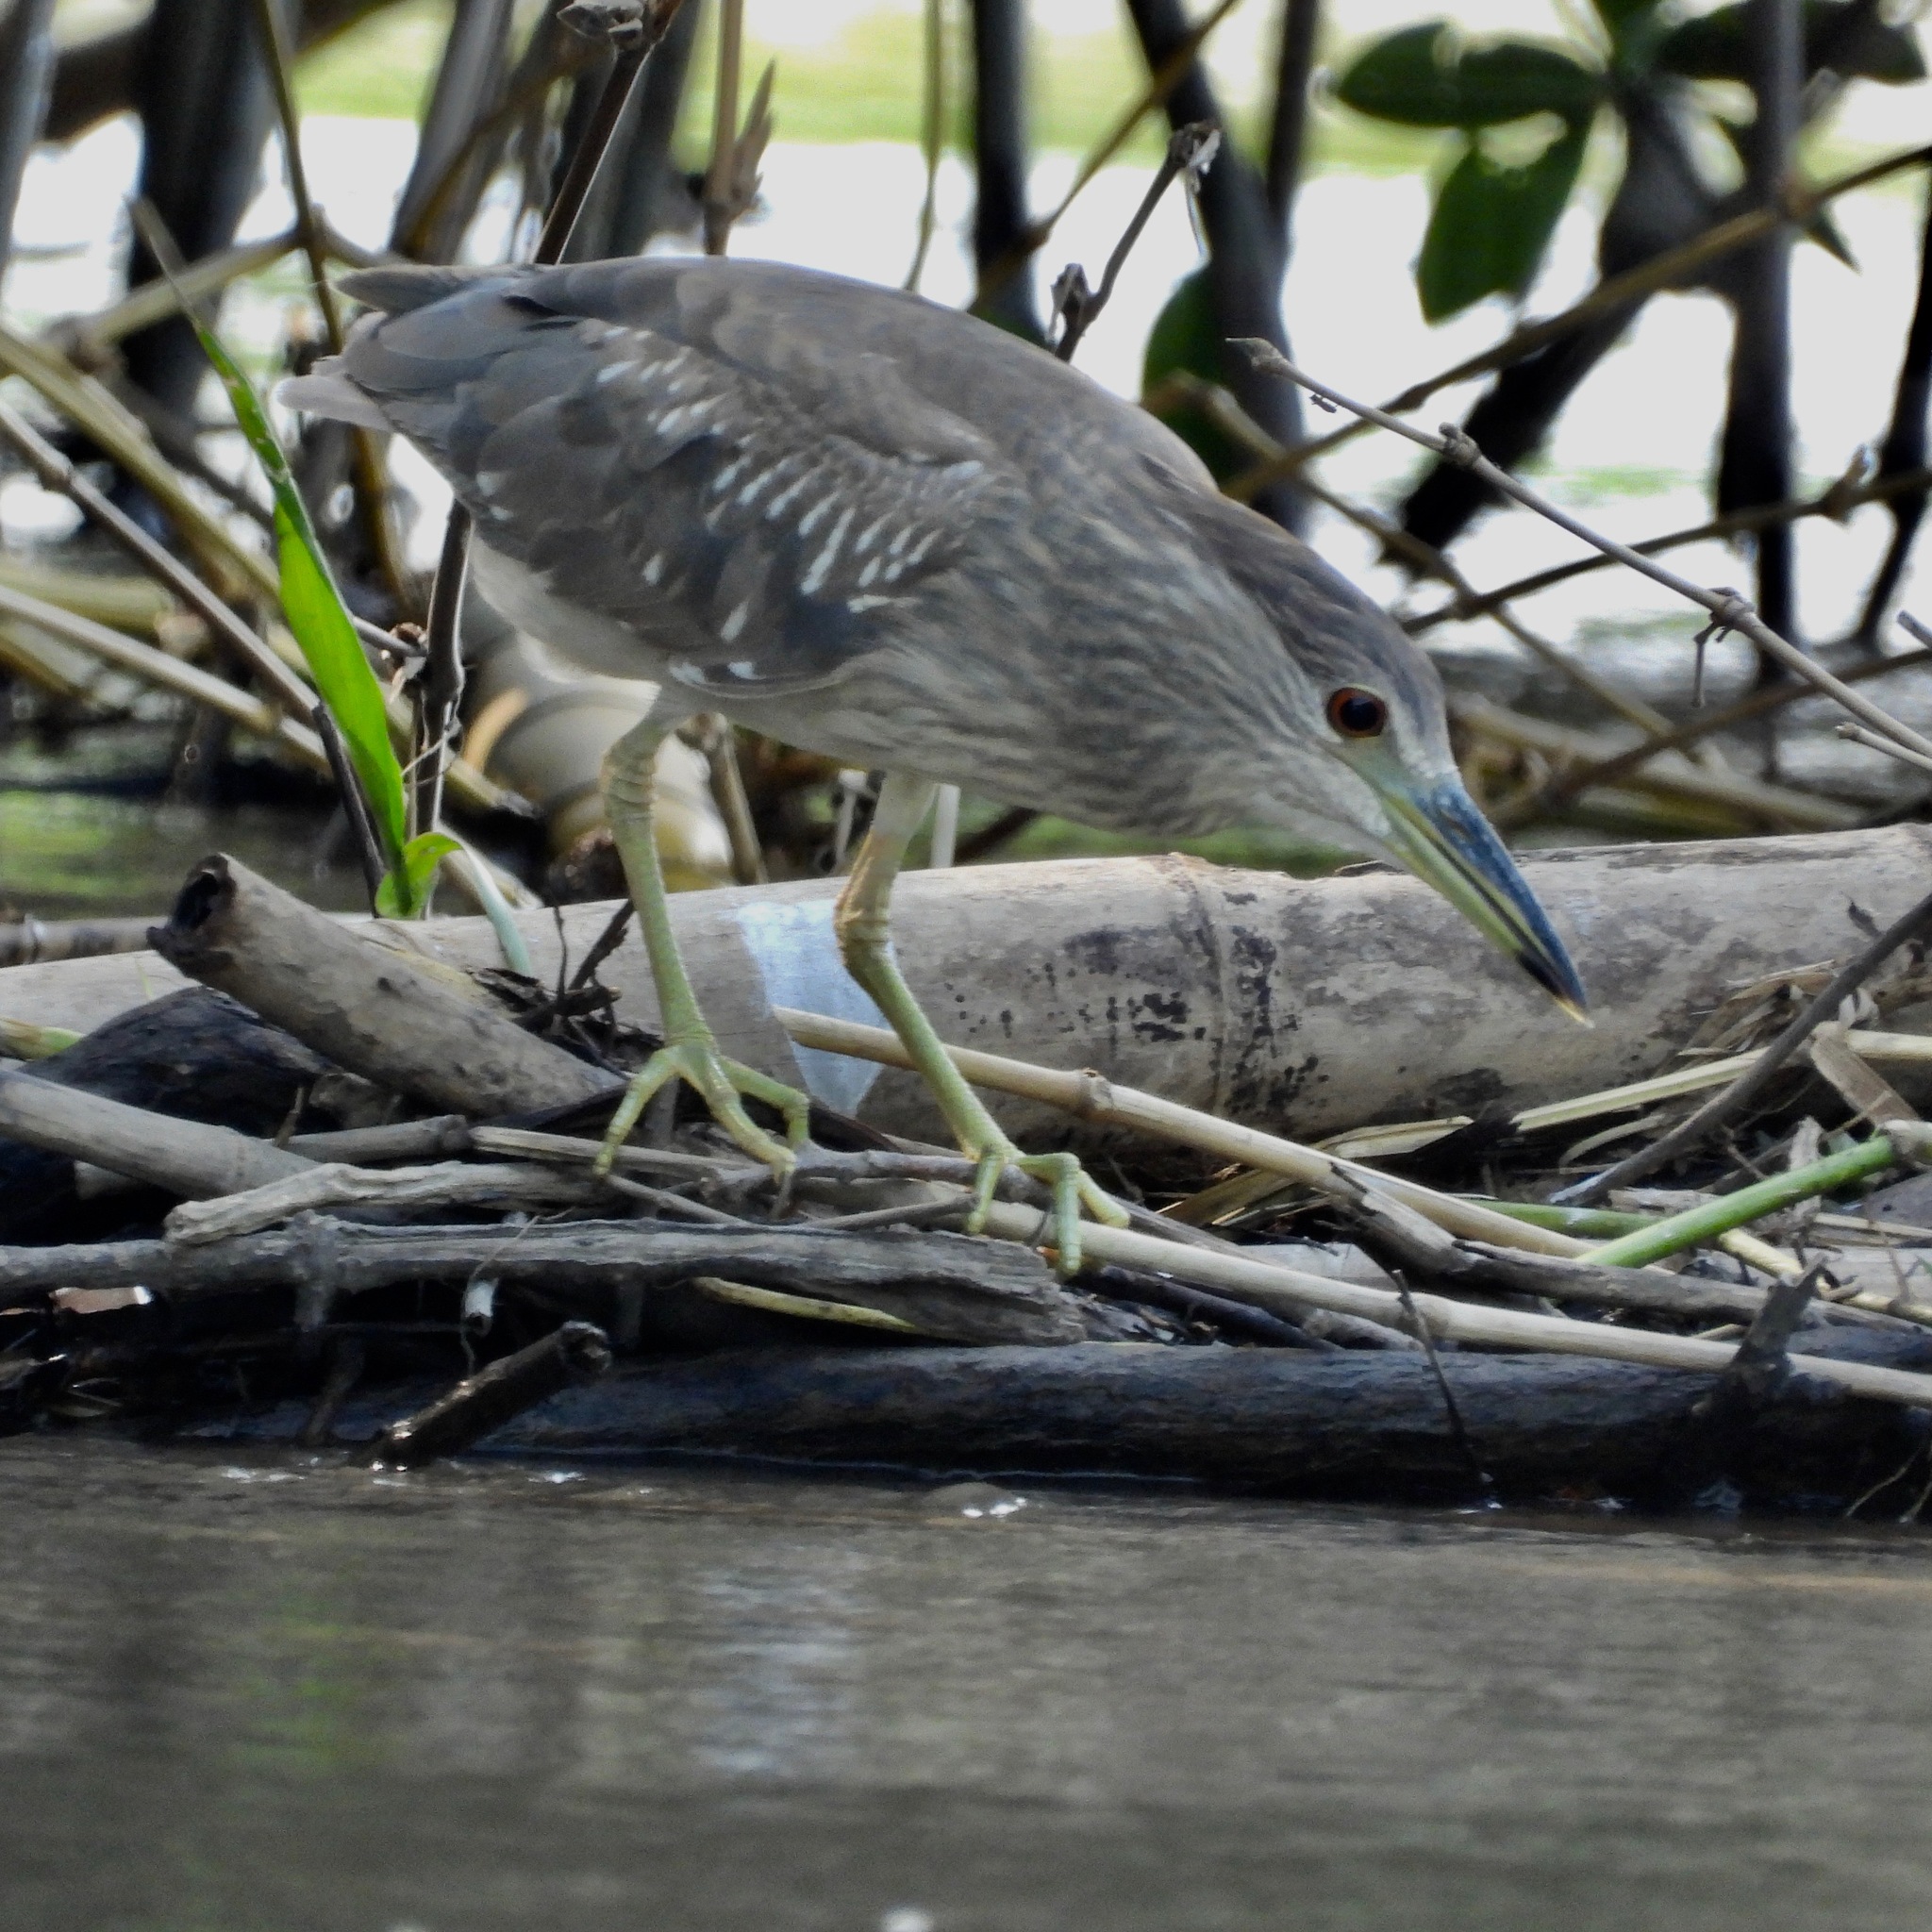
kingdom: Animalia
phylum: Chordata
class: Aves
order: Pelecaniformes
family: Ardeidae
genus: Nycticorax
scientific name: Nycticorax nycticorax
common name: Black-crowned night heron
